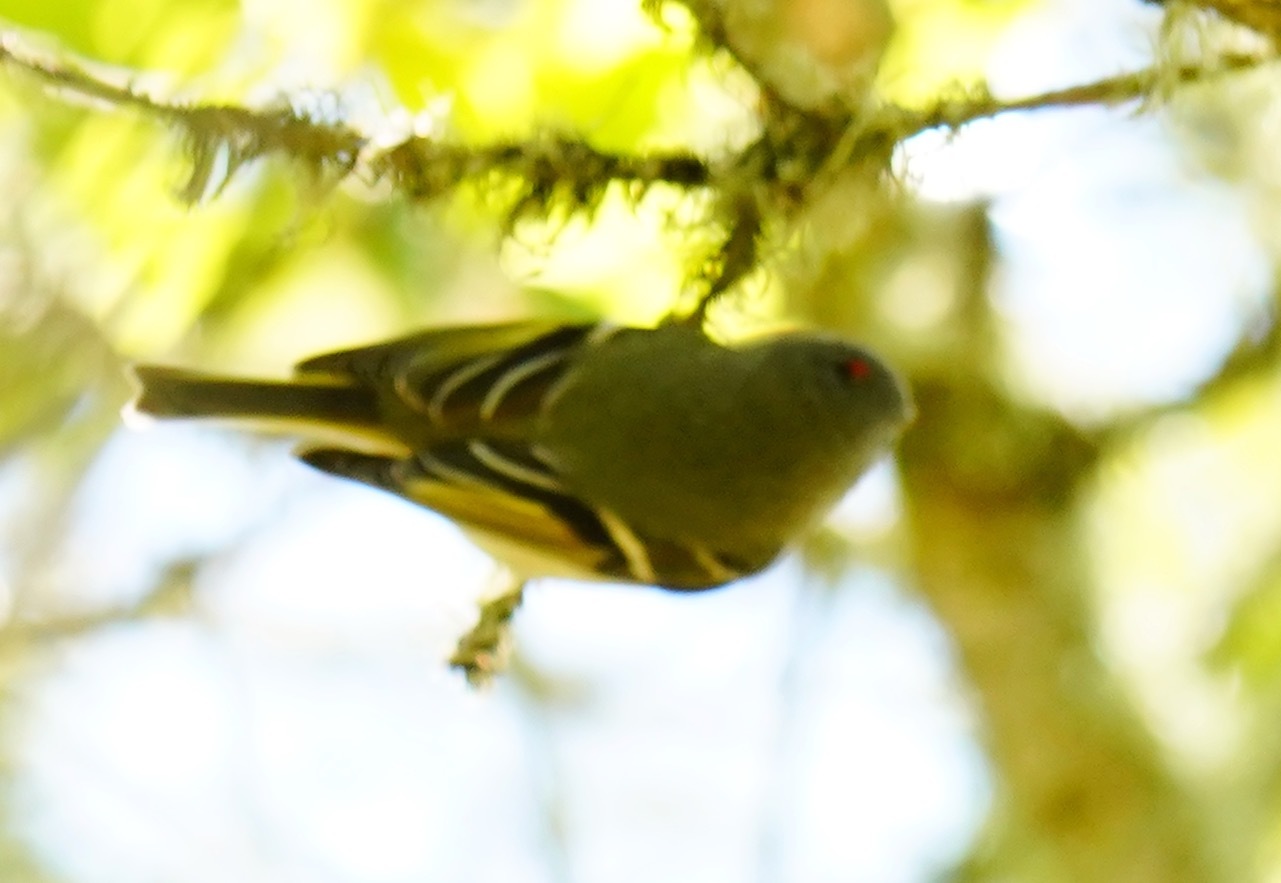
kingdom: Animalia
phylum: Chordata
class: Aves
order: Passeriformes
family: Regulidae
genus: Regulus
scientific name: Regulus calendula
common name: Ruby-crowned kinglet
